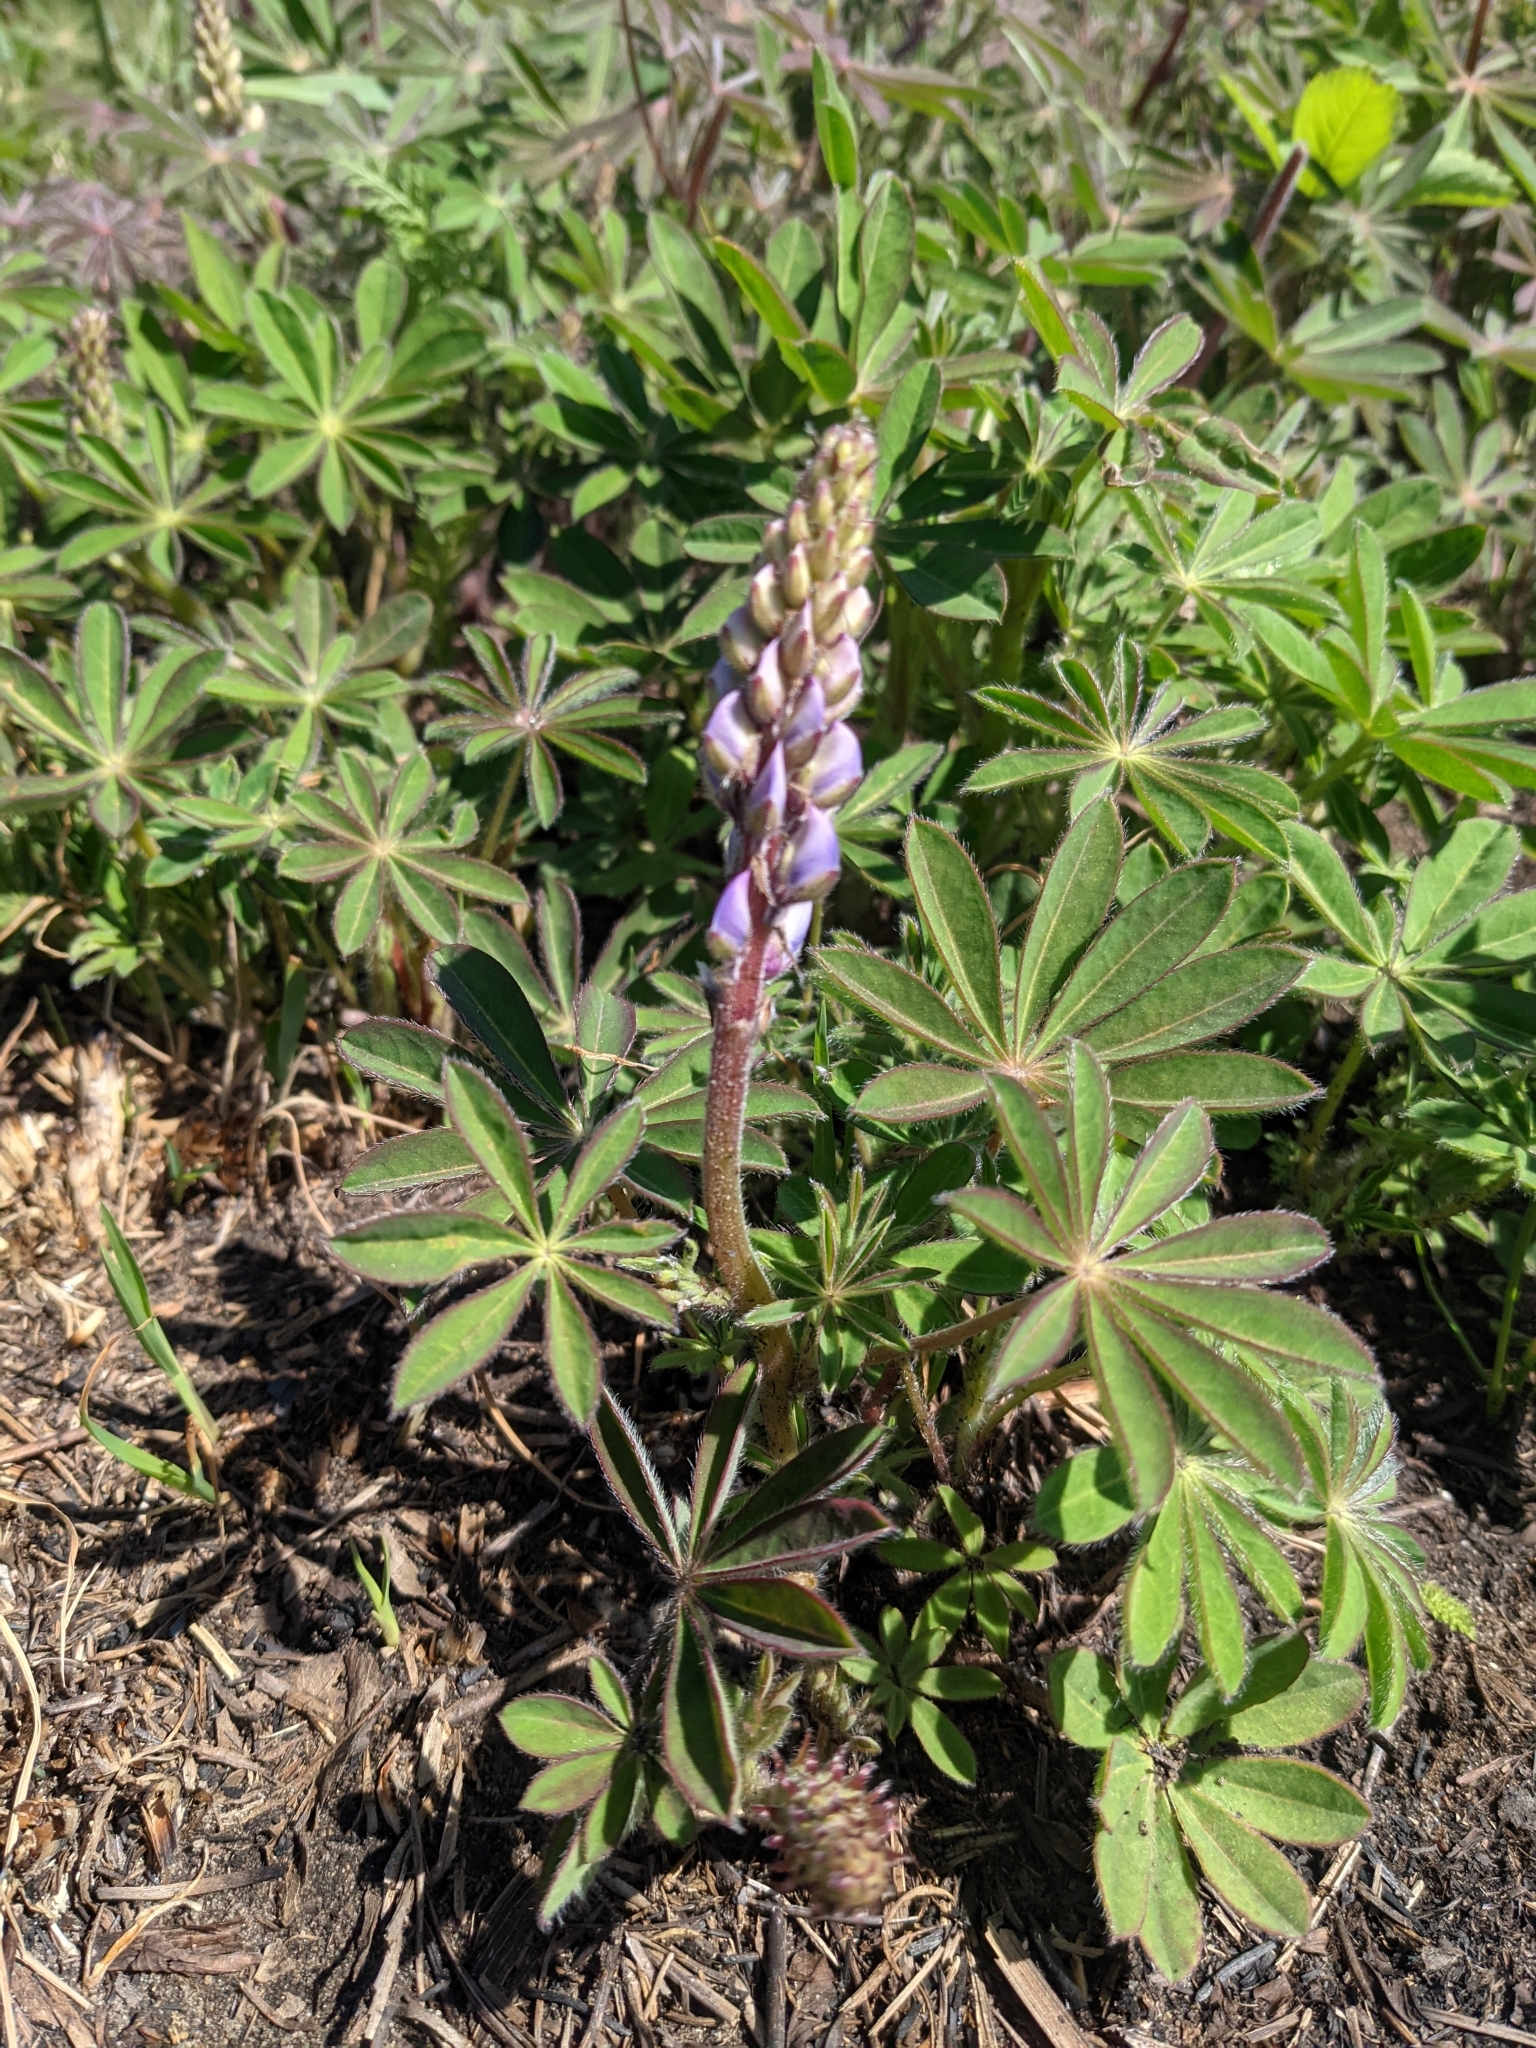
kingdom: Plantae
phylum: Tracheophyta
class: Magnoliopsida
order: Fabales
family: Fabaceae
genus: Lupinus
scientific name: Lupinus perennis
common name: Sundial lupine
